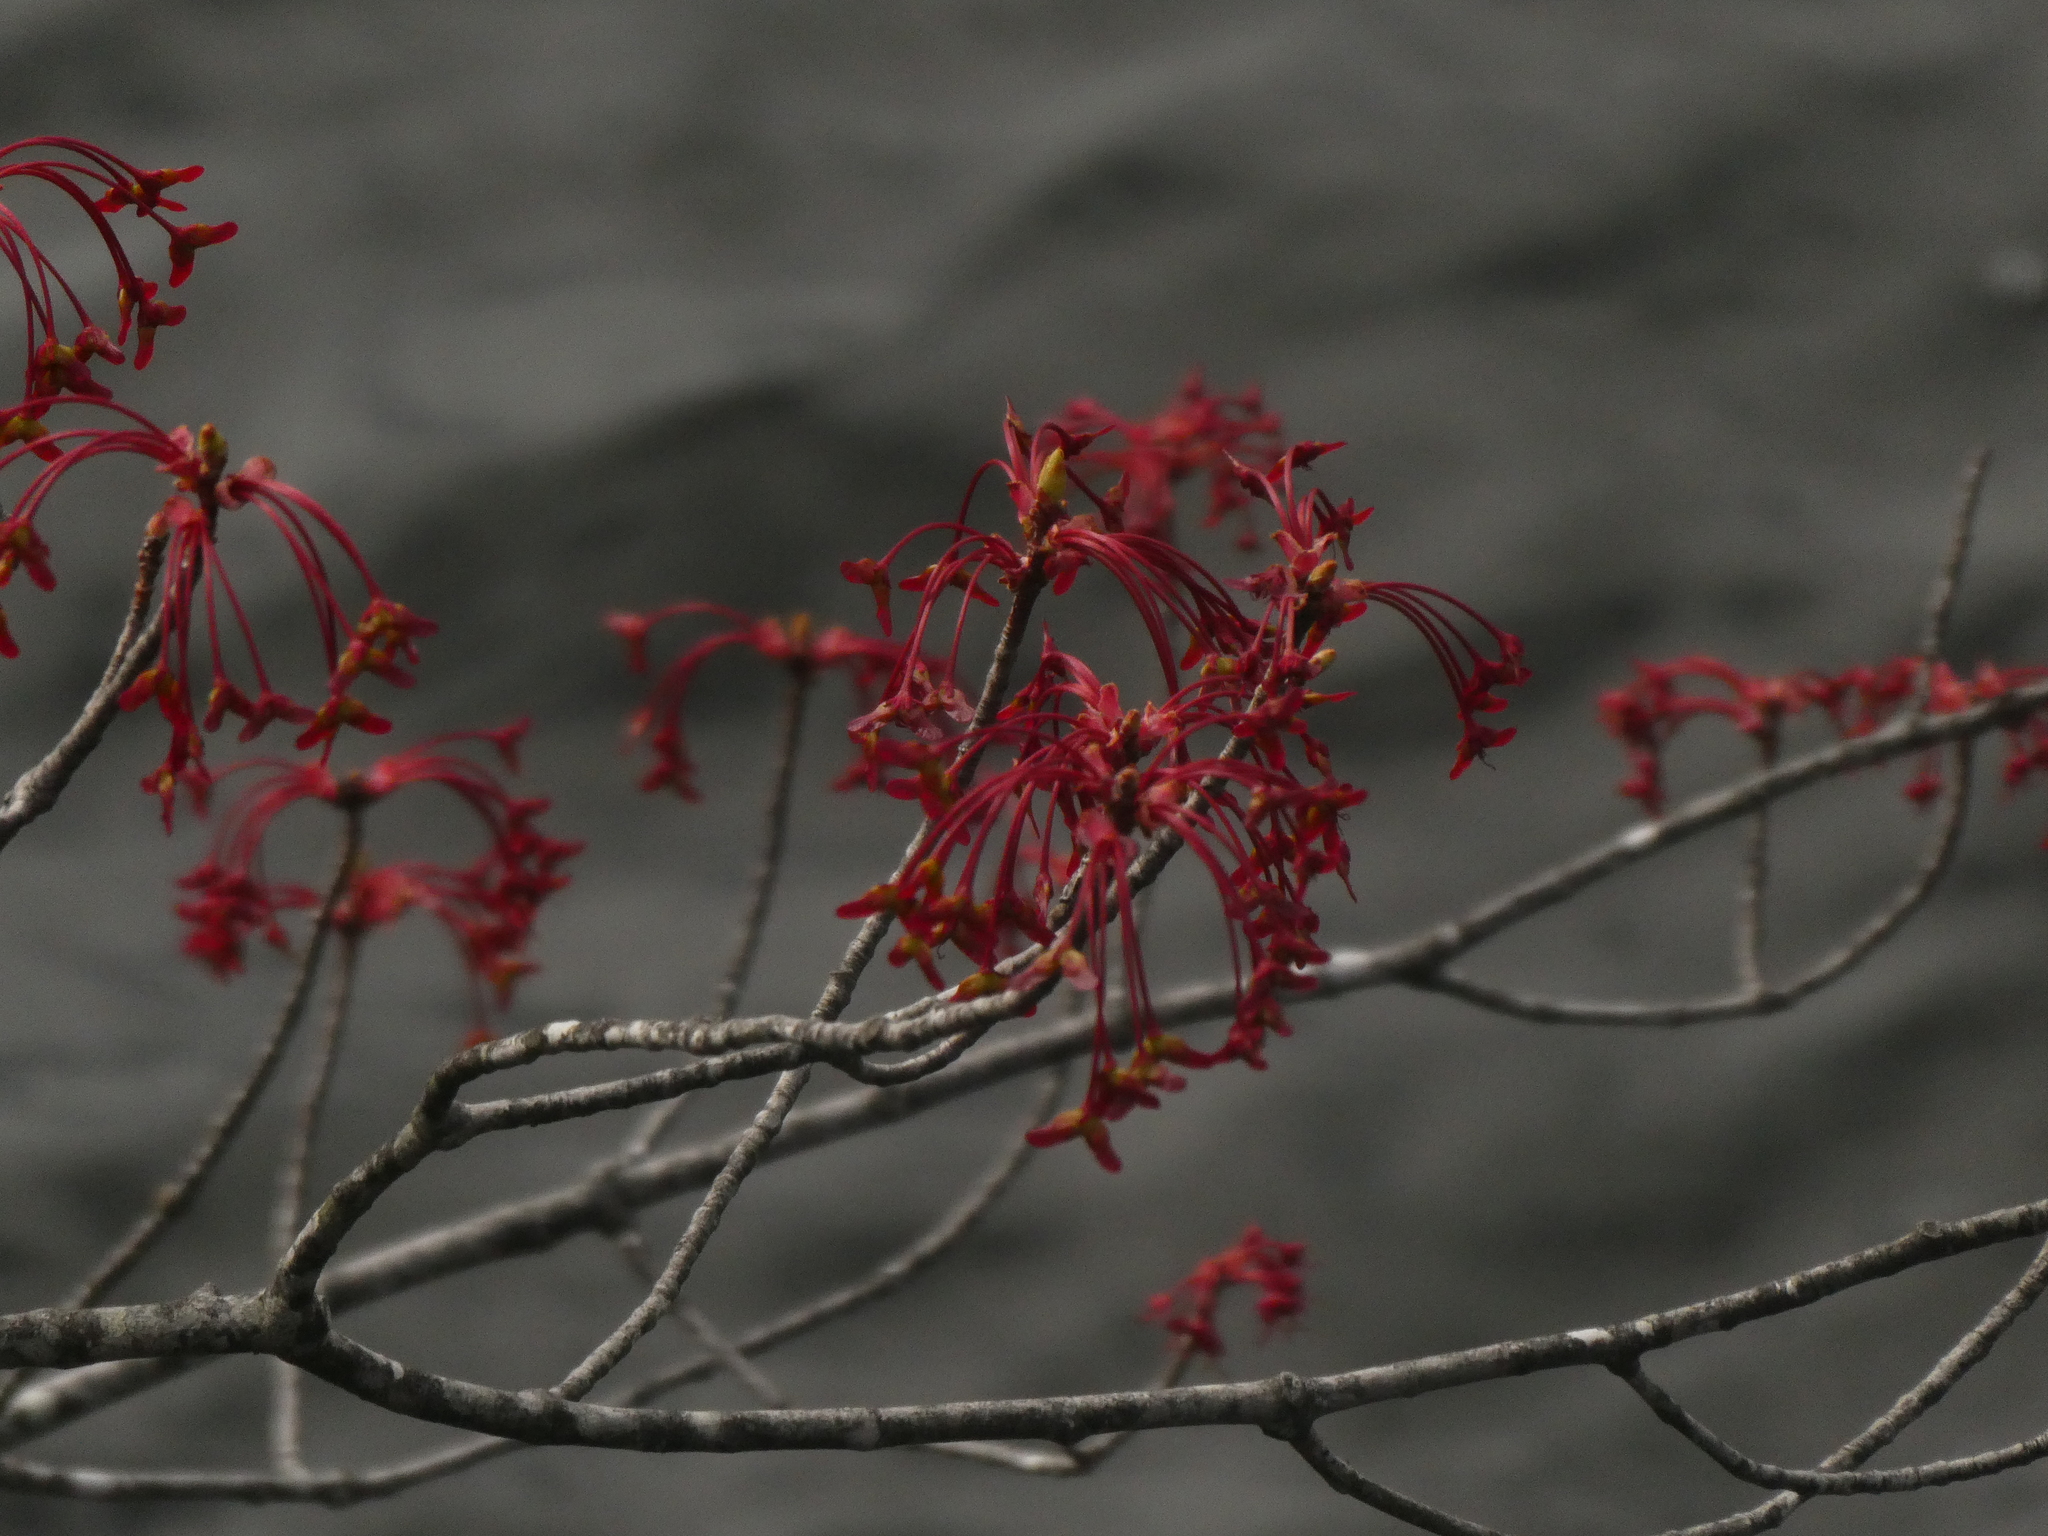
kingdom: Plantae
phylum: Tracheophyta
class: Magnoliopsida
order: Sapindales
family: Sapindaceae
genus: Acer
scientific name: Acer rubrum
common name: Red maple
